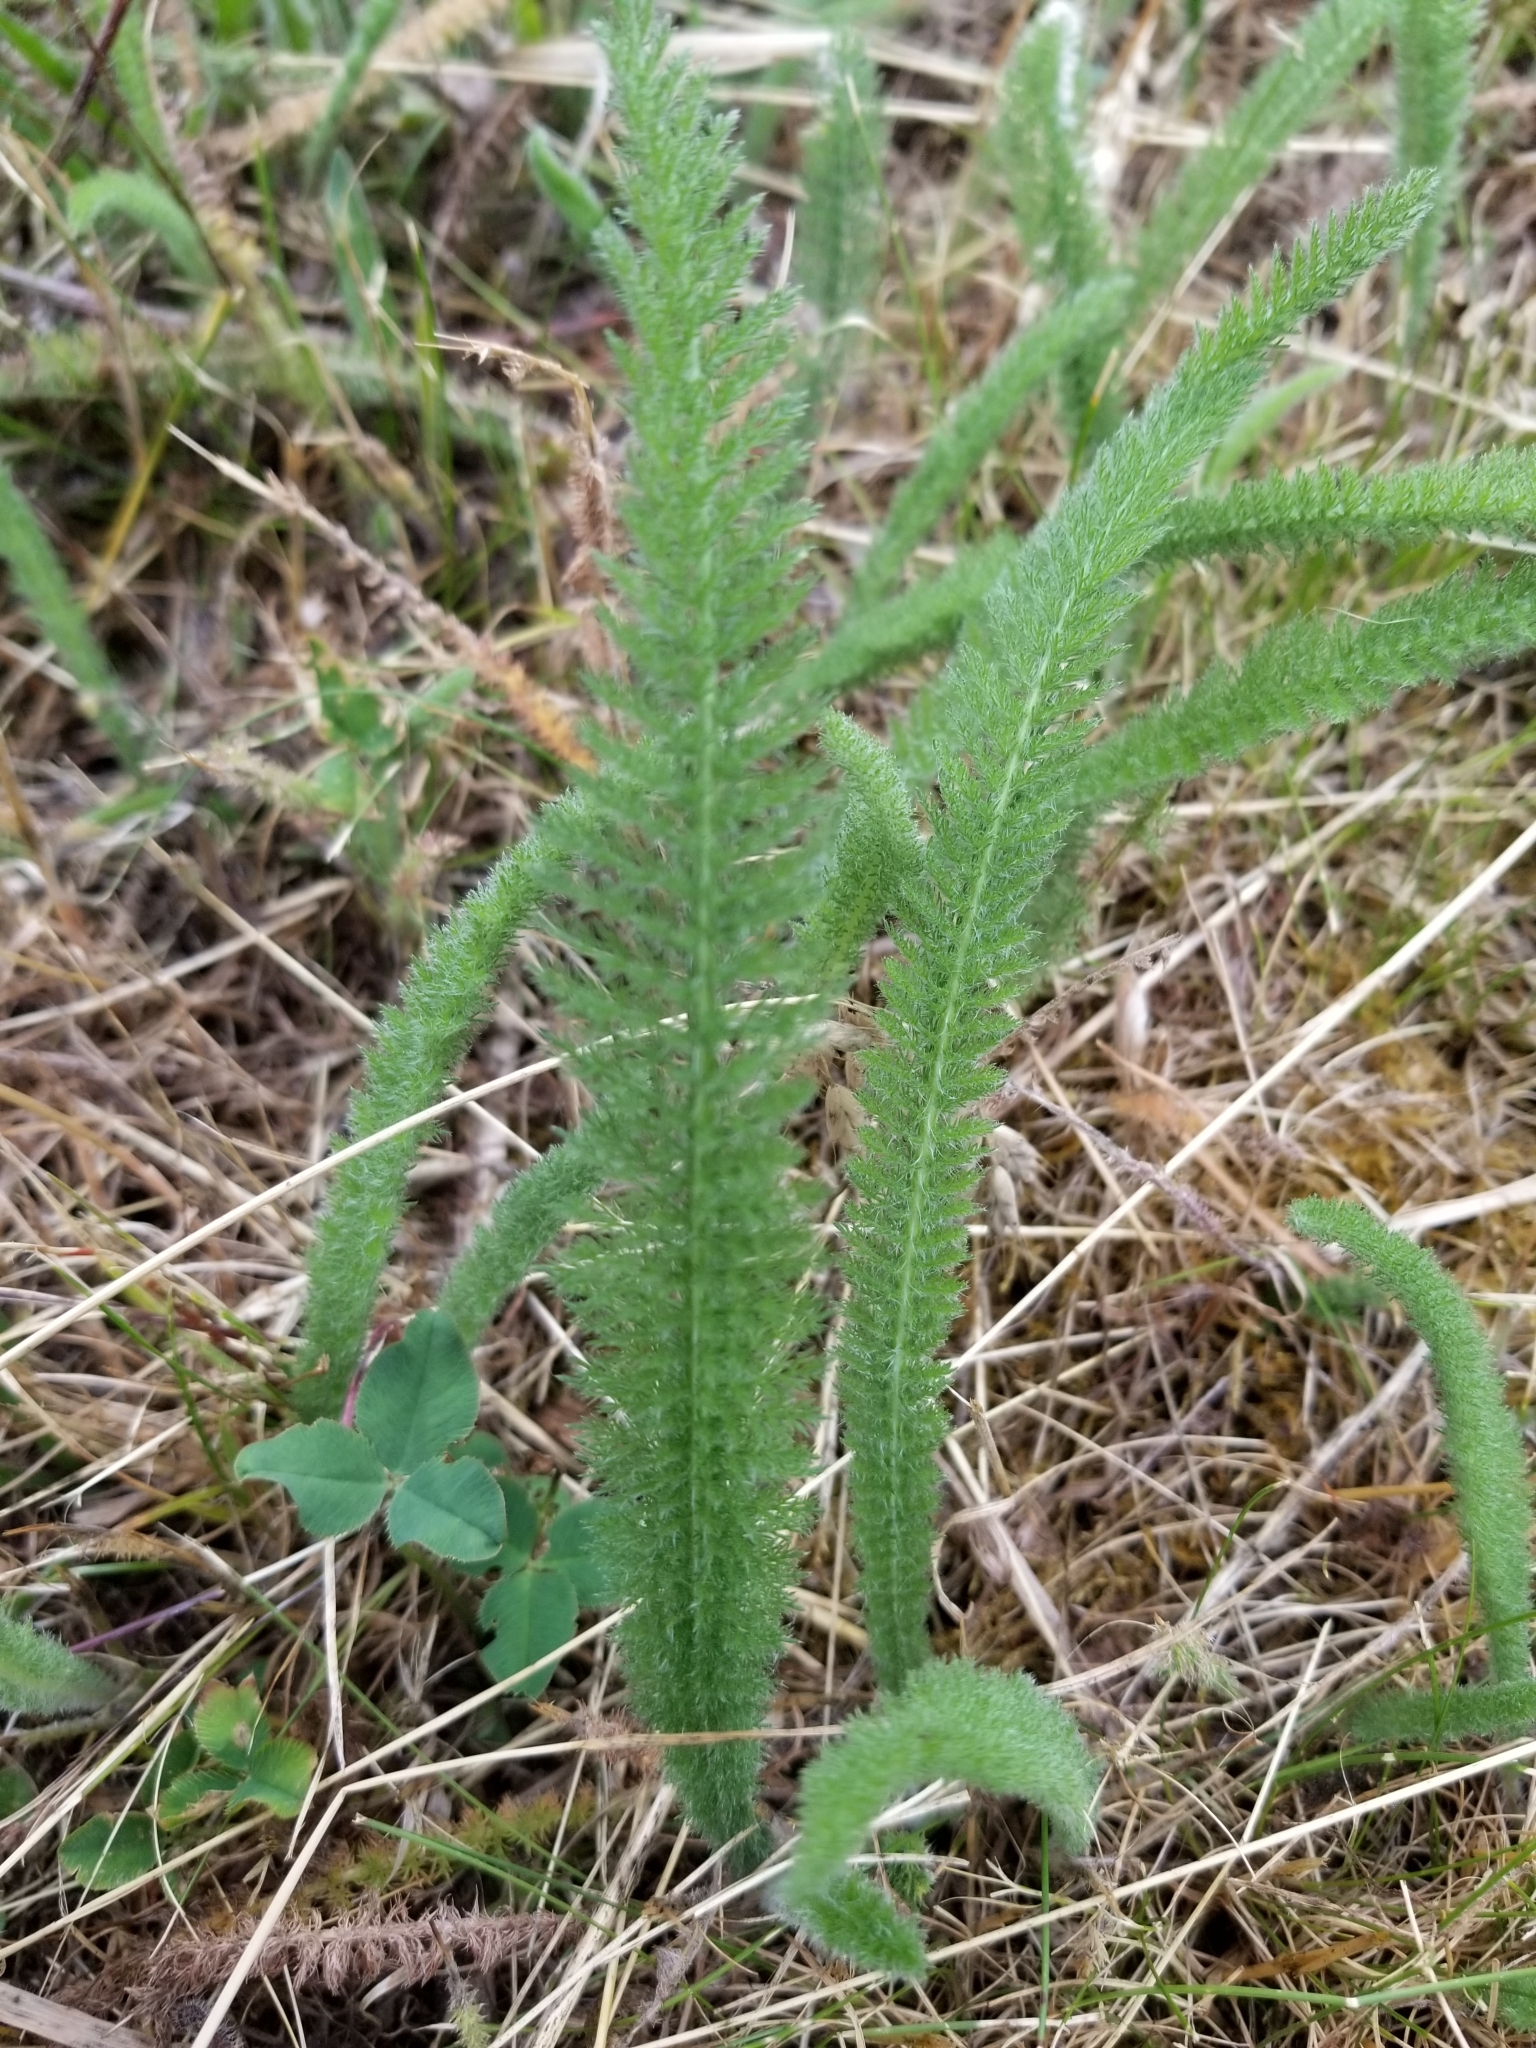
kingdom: Plantae
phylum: Tracheophyta
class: Magnoliopsida
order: Asterales
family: Asteraceae
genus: Achillea
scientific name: Achillea millefolium
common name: Yarrow
